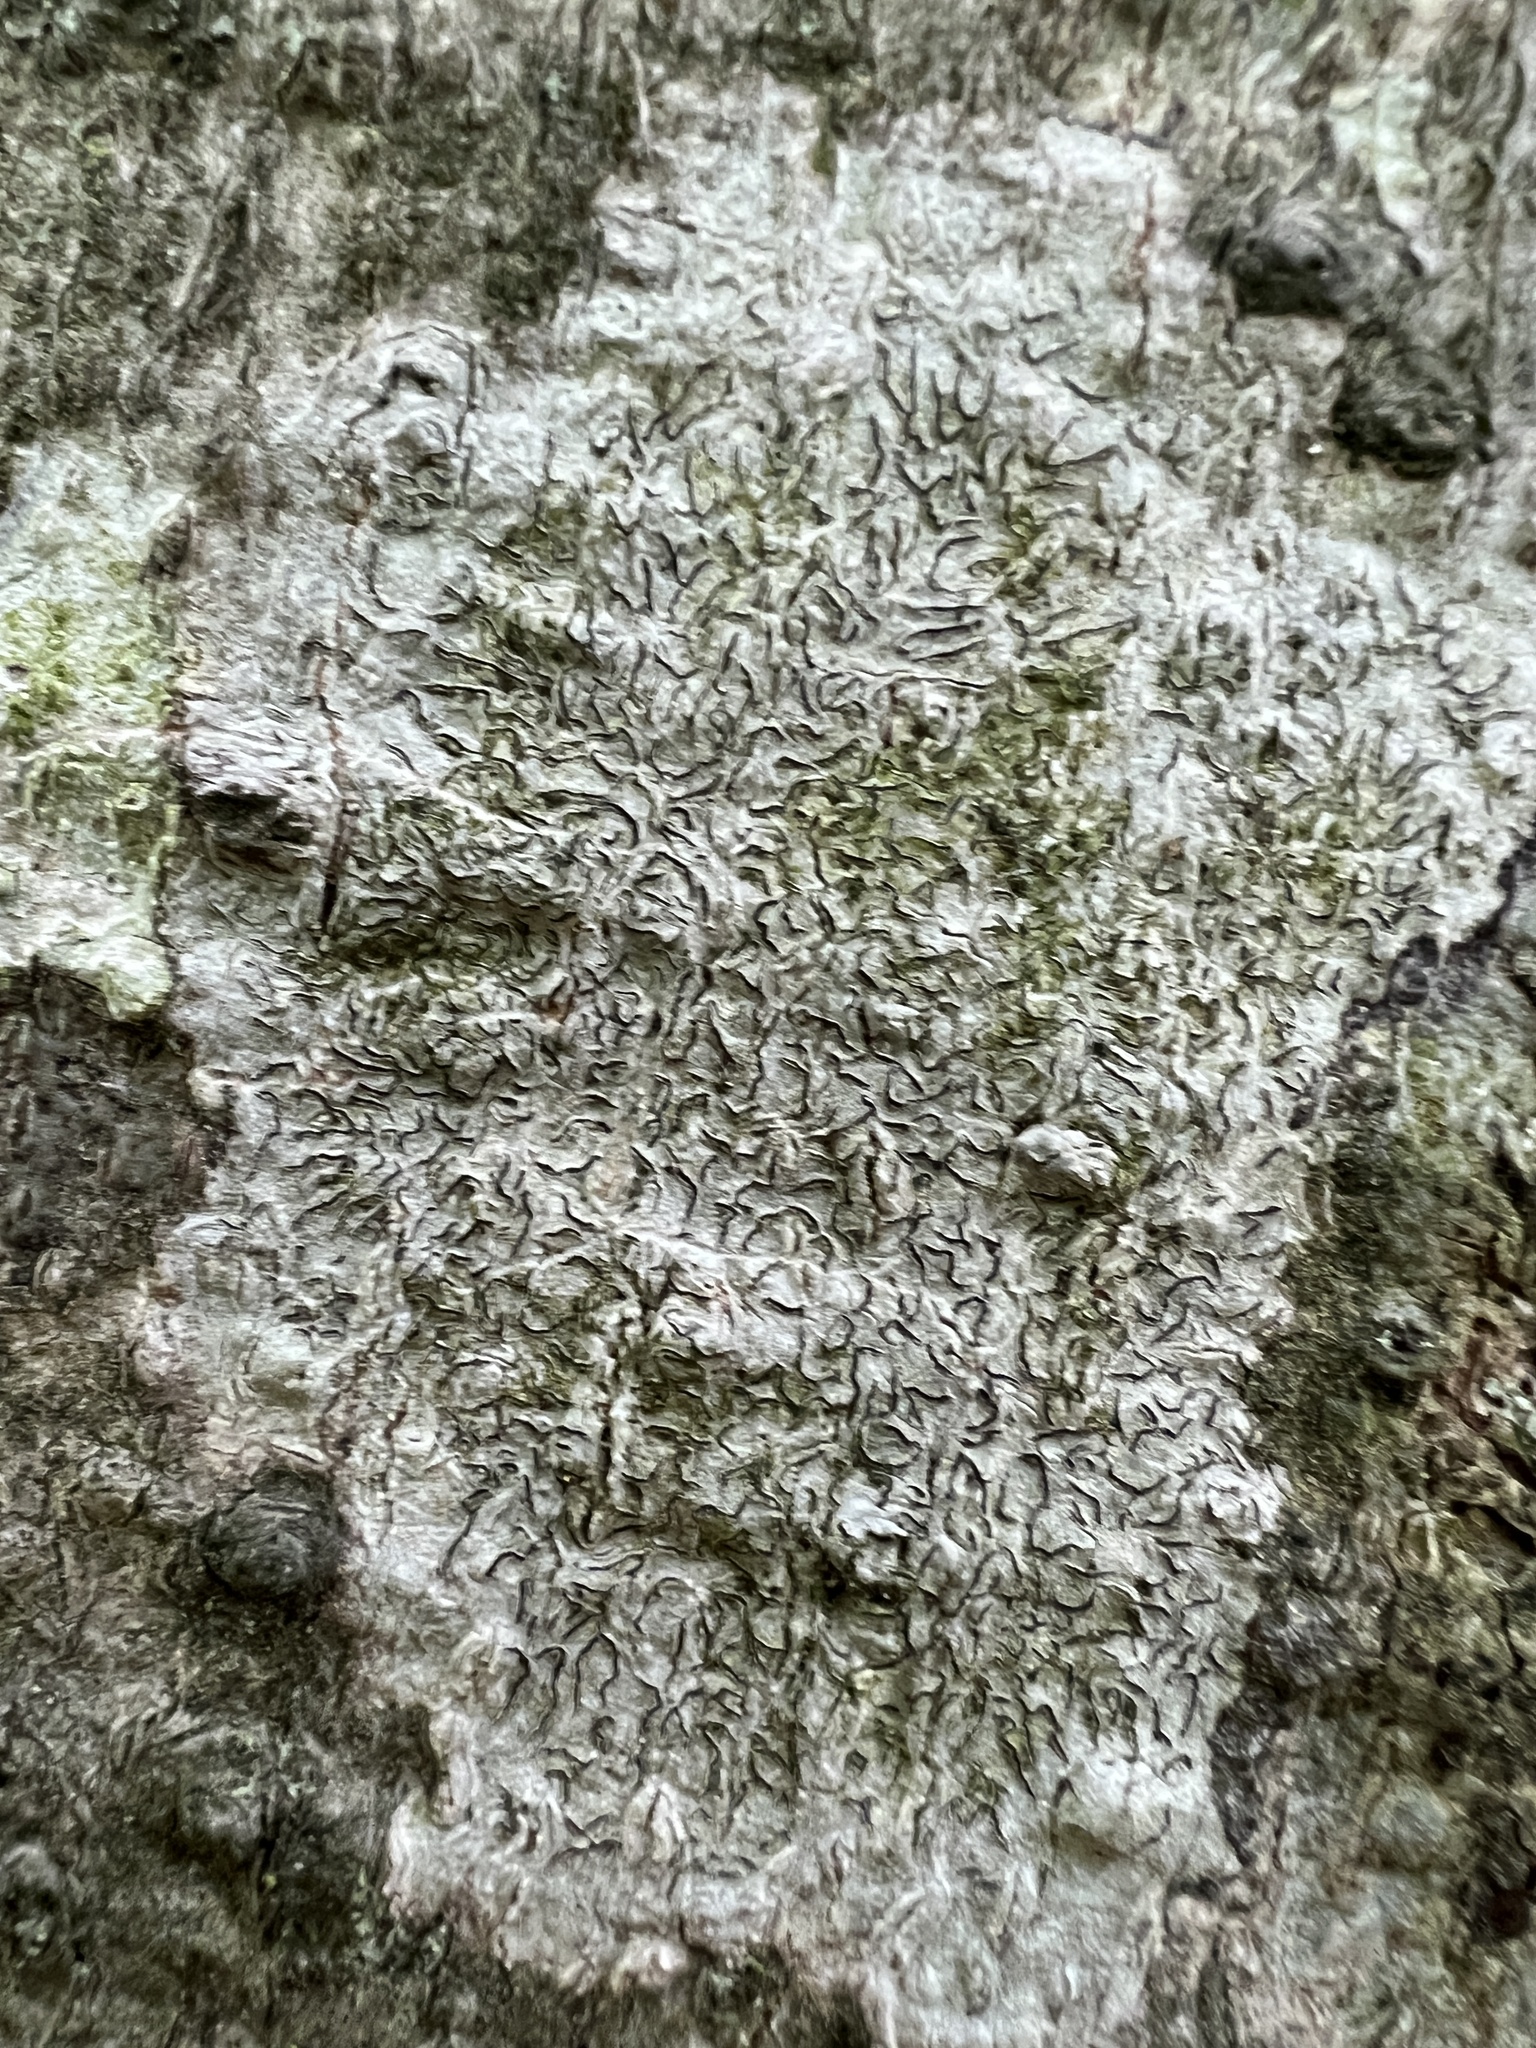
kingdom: Fungi
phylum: Ascomycota
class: Lecanoromycetes
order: Ostropales
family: Graphidaceae
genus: Graphis
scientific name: Graphis scripta
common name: Script lichen
